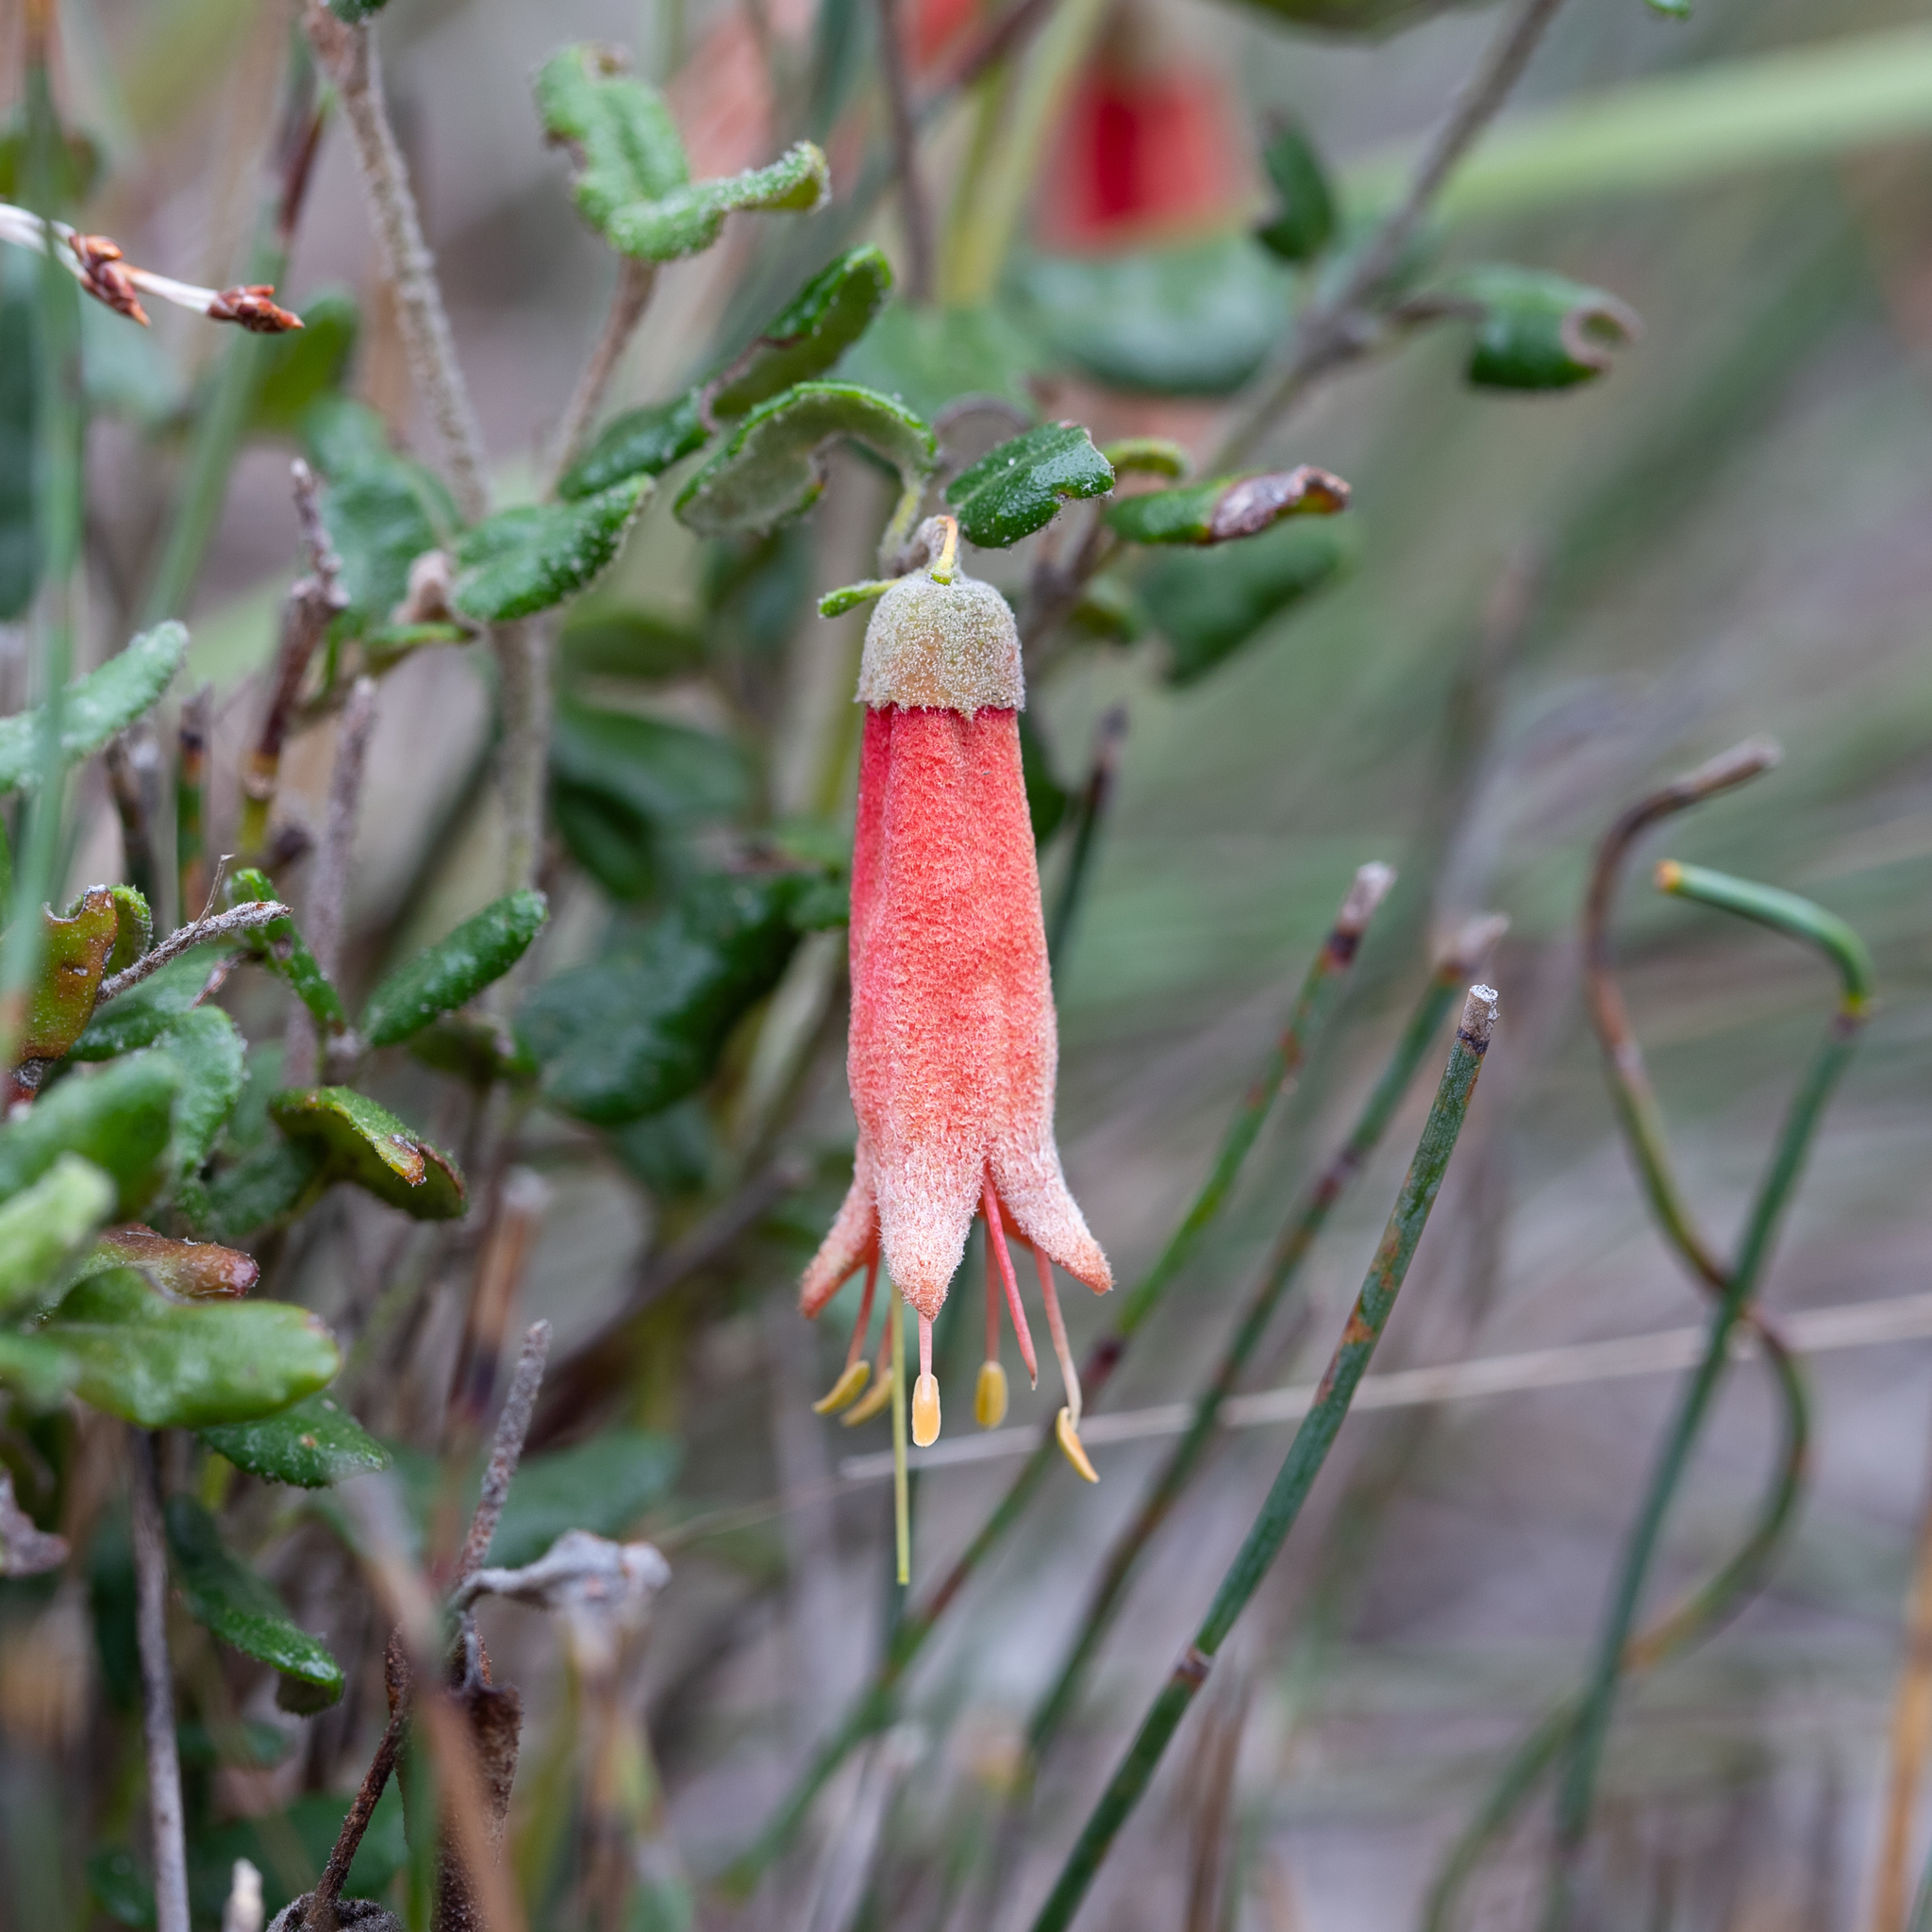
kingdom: Plantae
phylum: Tracheophyta
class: Magnoliopsida
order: Sapindales
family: Rutaceae
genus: Correa
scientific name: Correa reflexa
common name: Common correa
